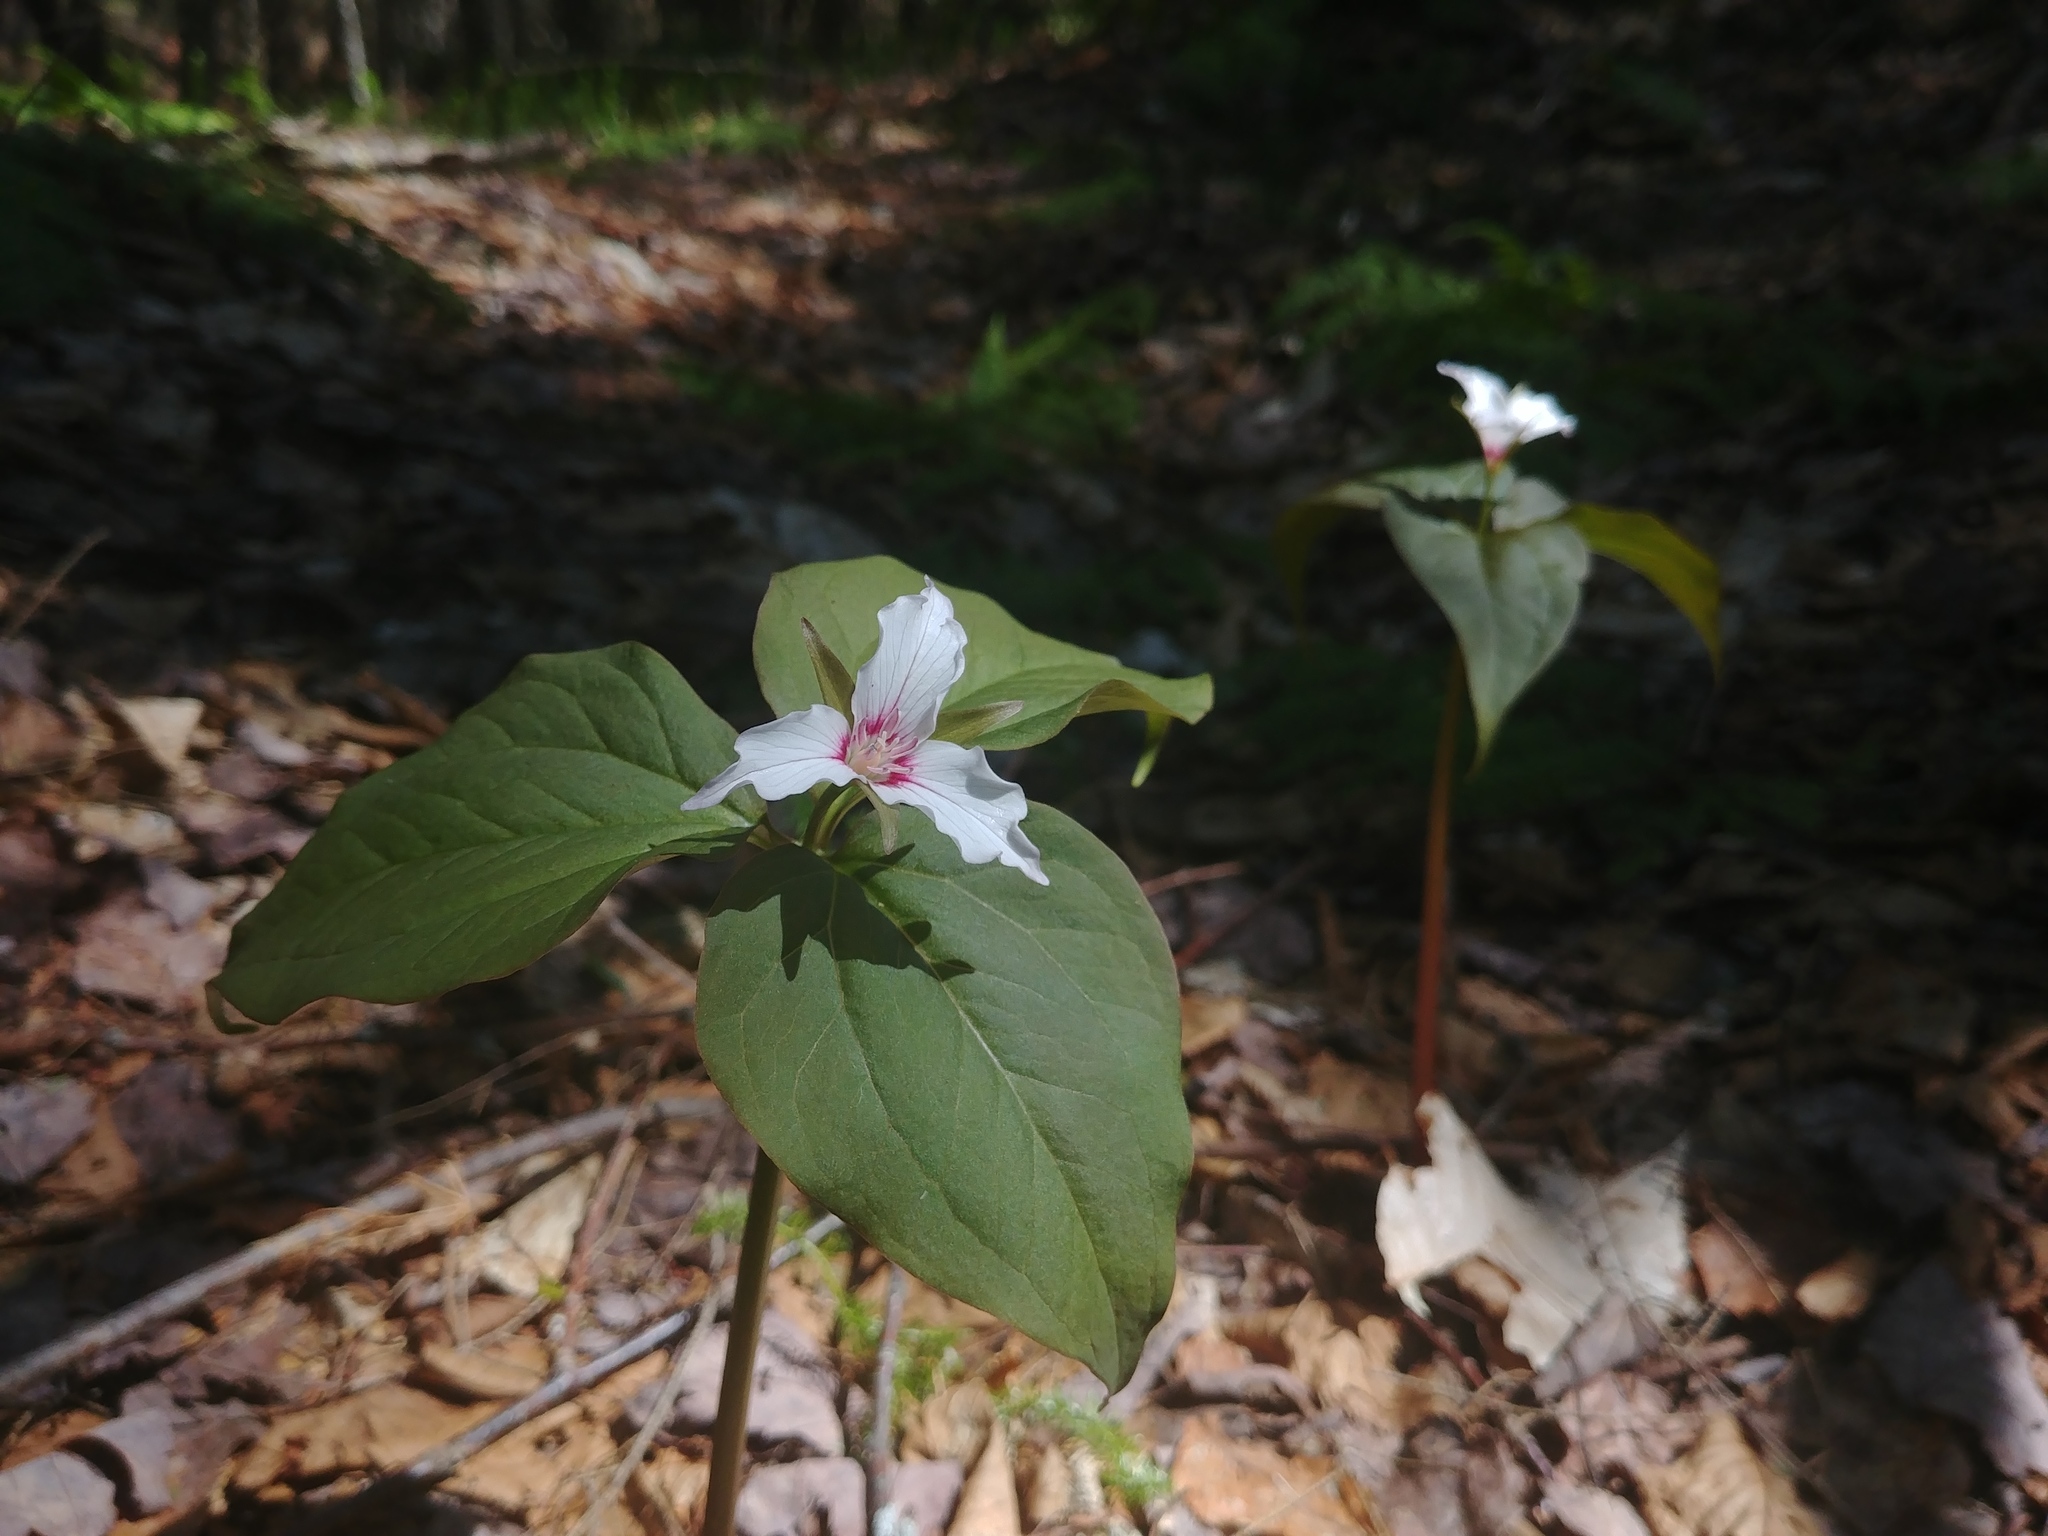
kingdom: Plantae
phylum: Tracheophyta
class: Liliopsida
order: Liliales
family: Melanthiaceae
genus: Trillium
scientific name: Trillium undulatum
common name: Paint trillium
